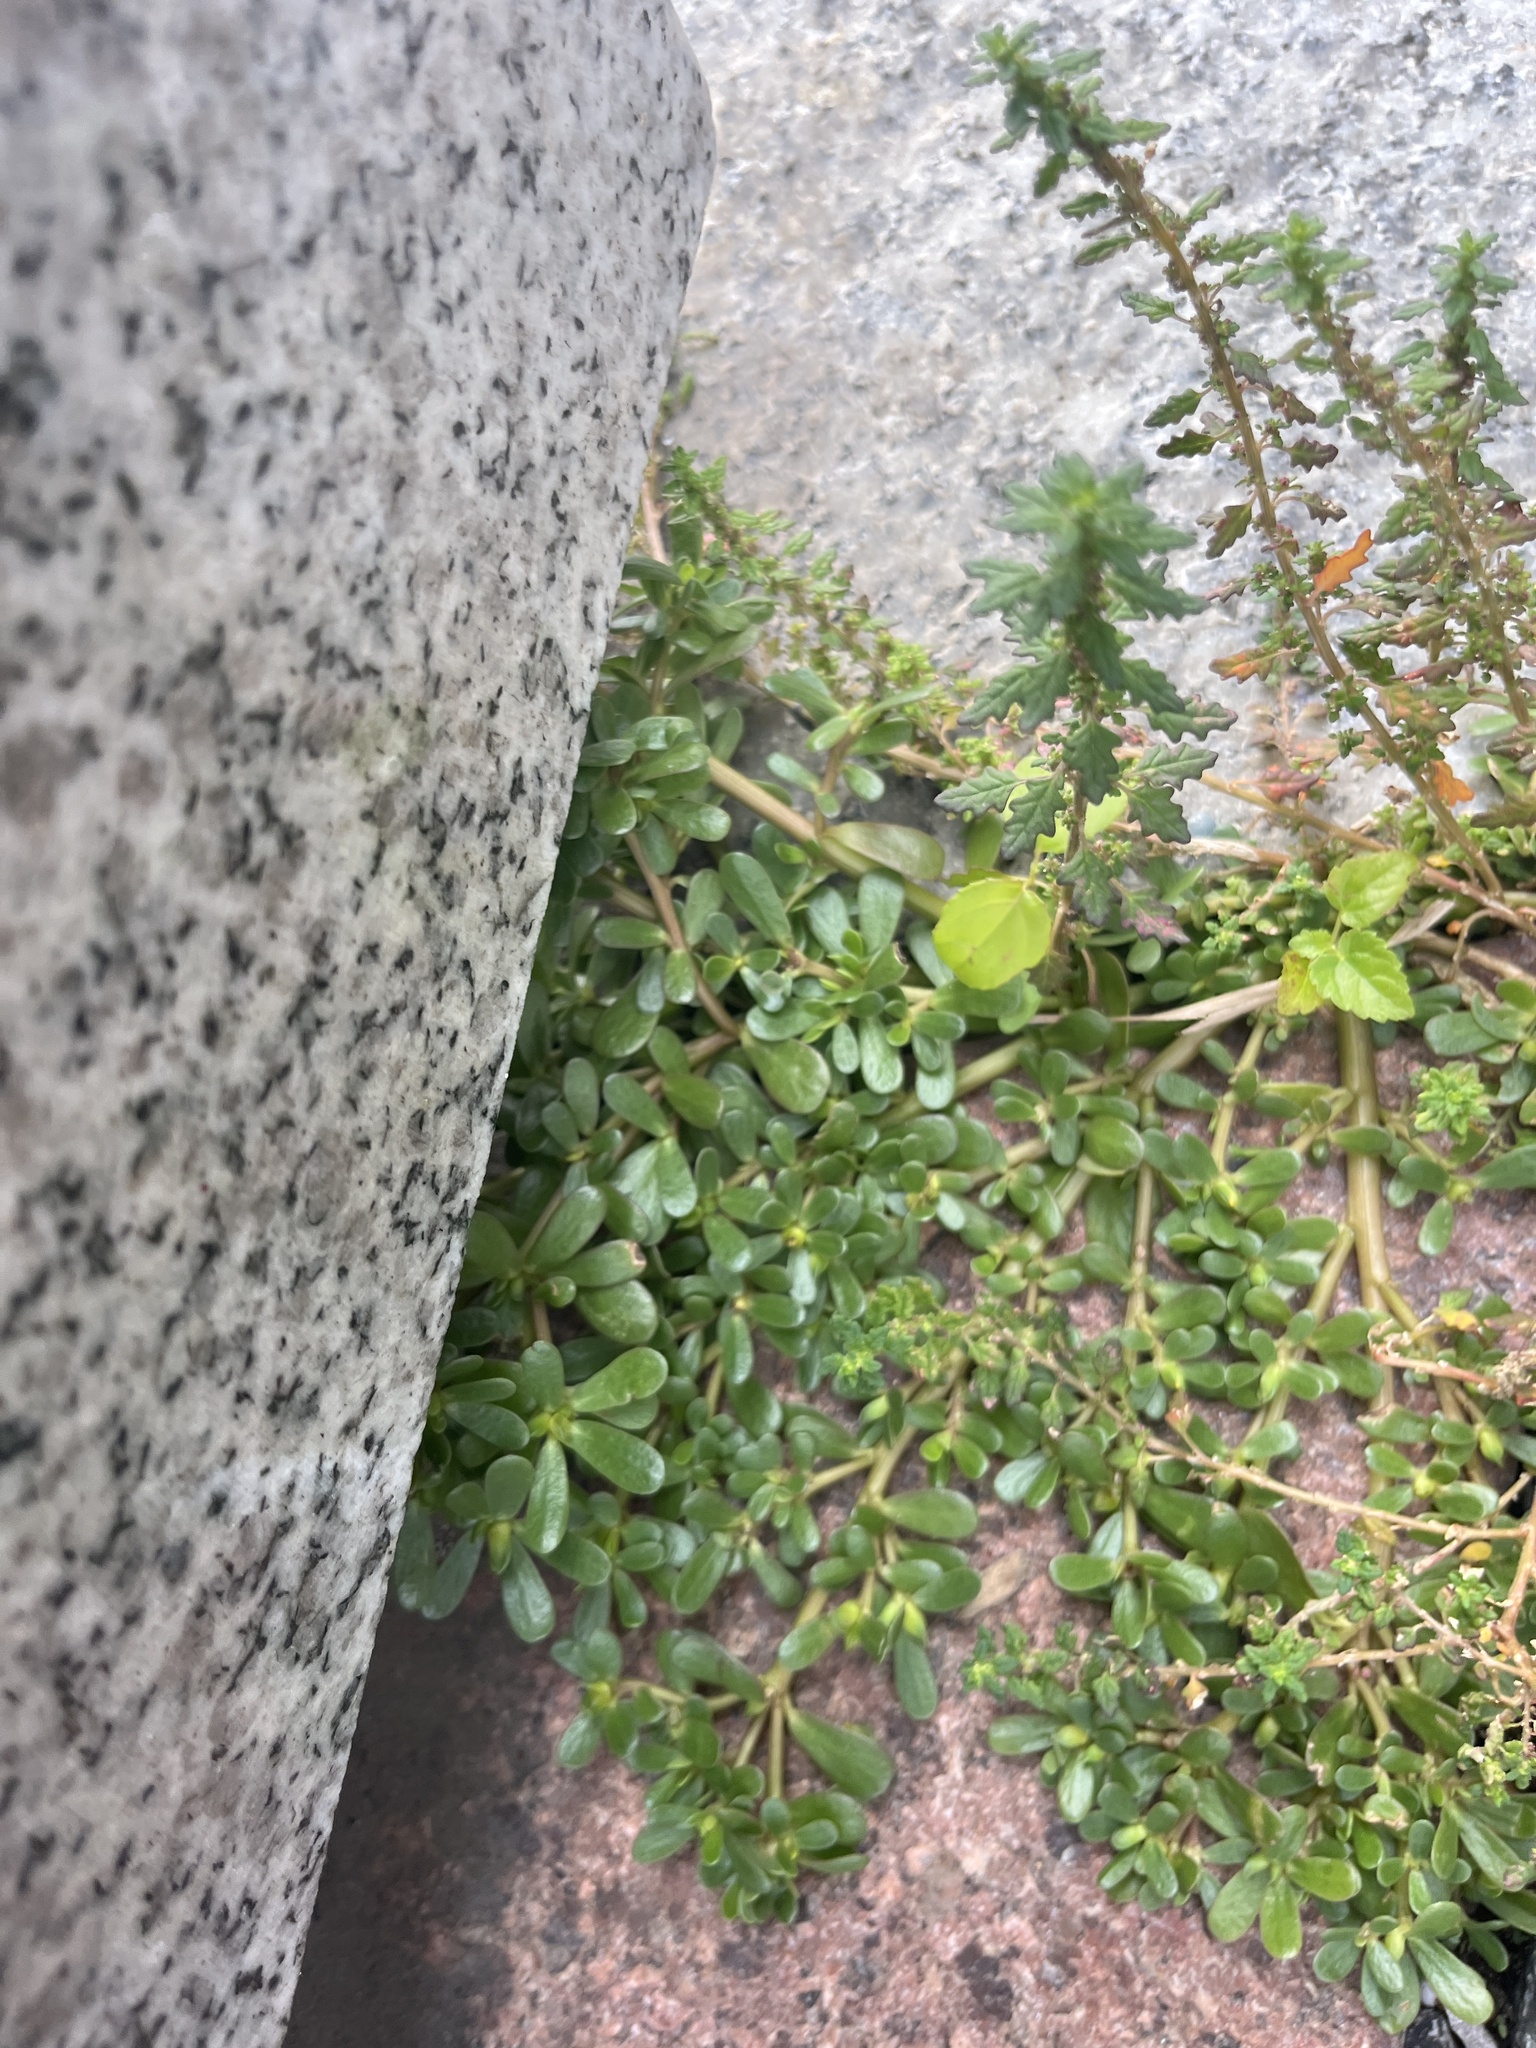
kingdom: Plantae
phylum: Tracheophyta
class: Magnoliopsida
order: Caryophyllales
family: Portulacaceae
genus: Portulaca
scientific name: Portulaca oleracea
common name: Common purslane
